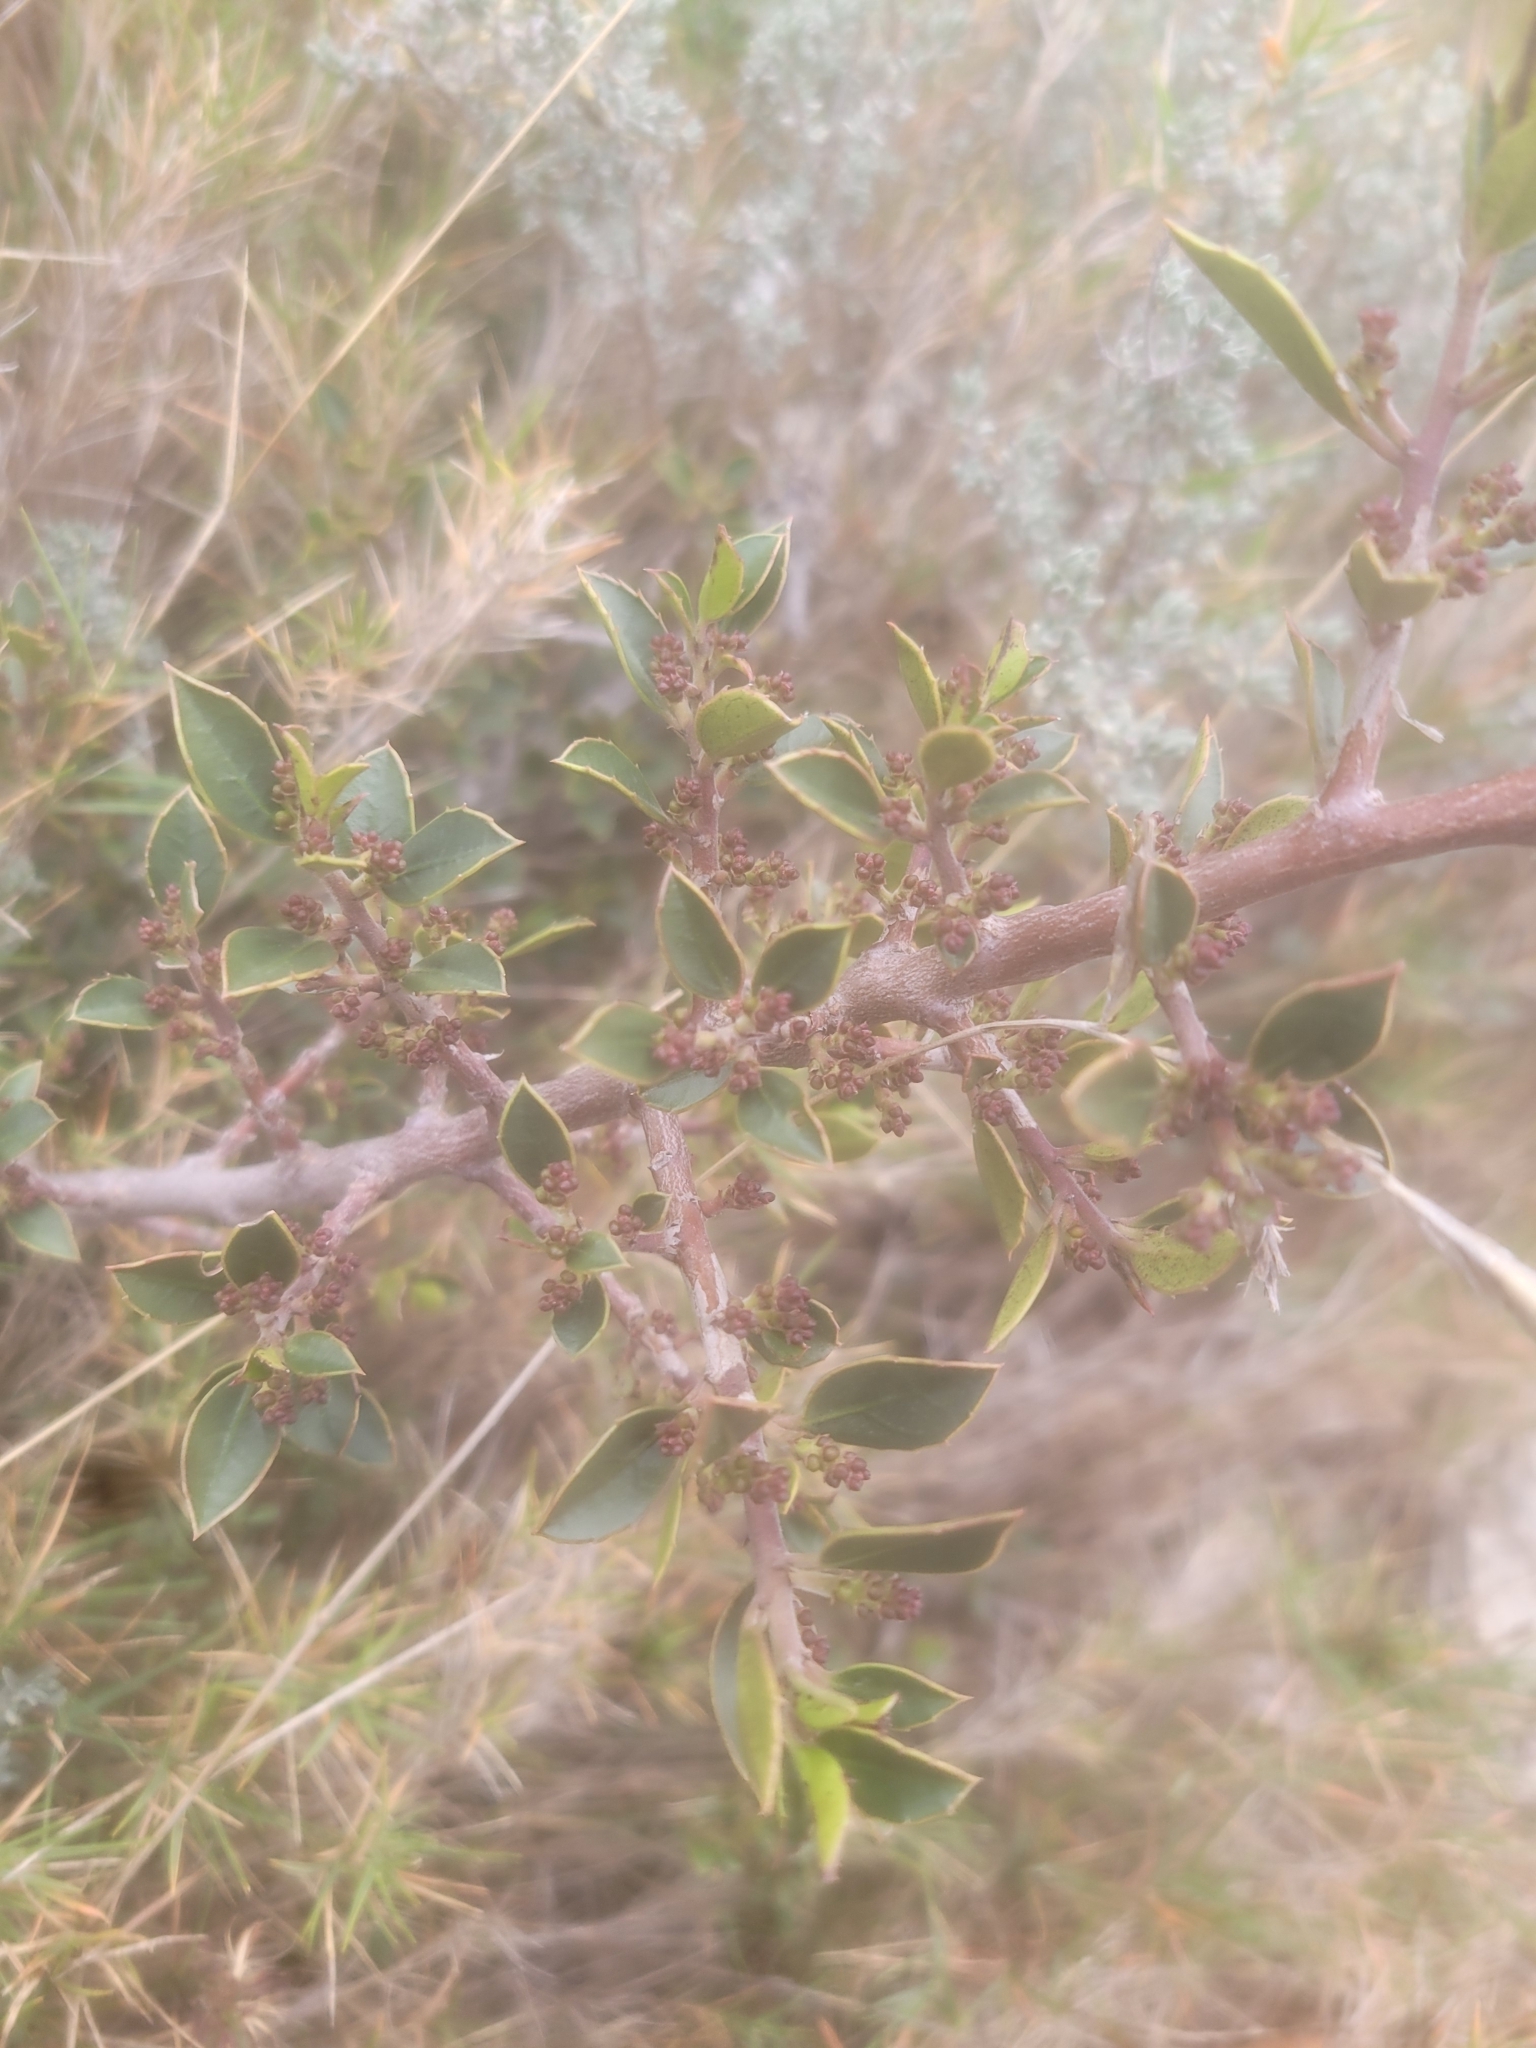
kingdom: Plantae
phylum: Tracheophyta
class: Magnoliopsida
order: Rosales
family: Rhamnaceae
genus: Rhamnus
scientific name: Rhamnus alaternus
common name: Mediterranean buckthorn
